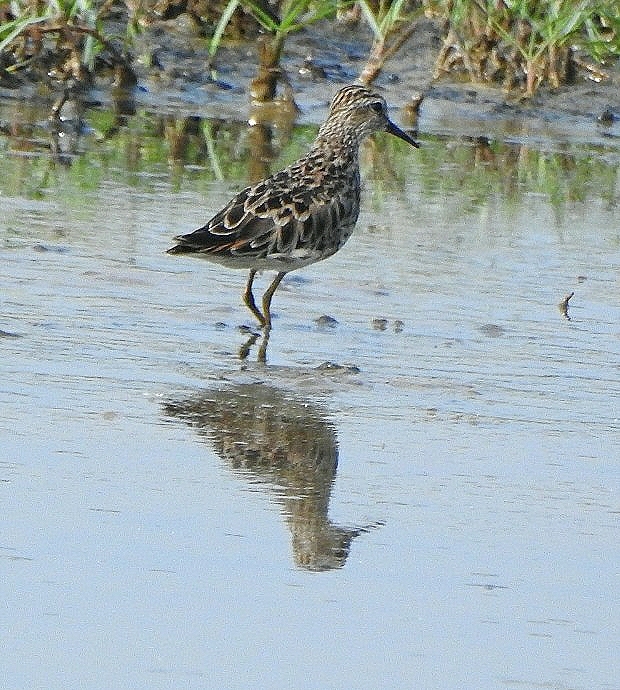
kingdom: Animalia
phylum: Chordata
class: Aves
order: Charadriiformes
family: Scolopacidae
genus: Calidris
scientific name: Calidris subminuta
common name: Long-toed stint
